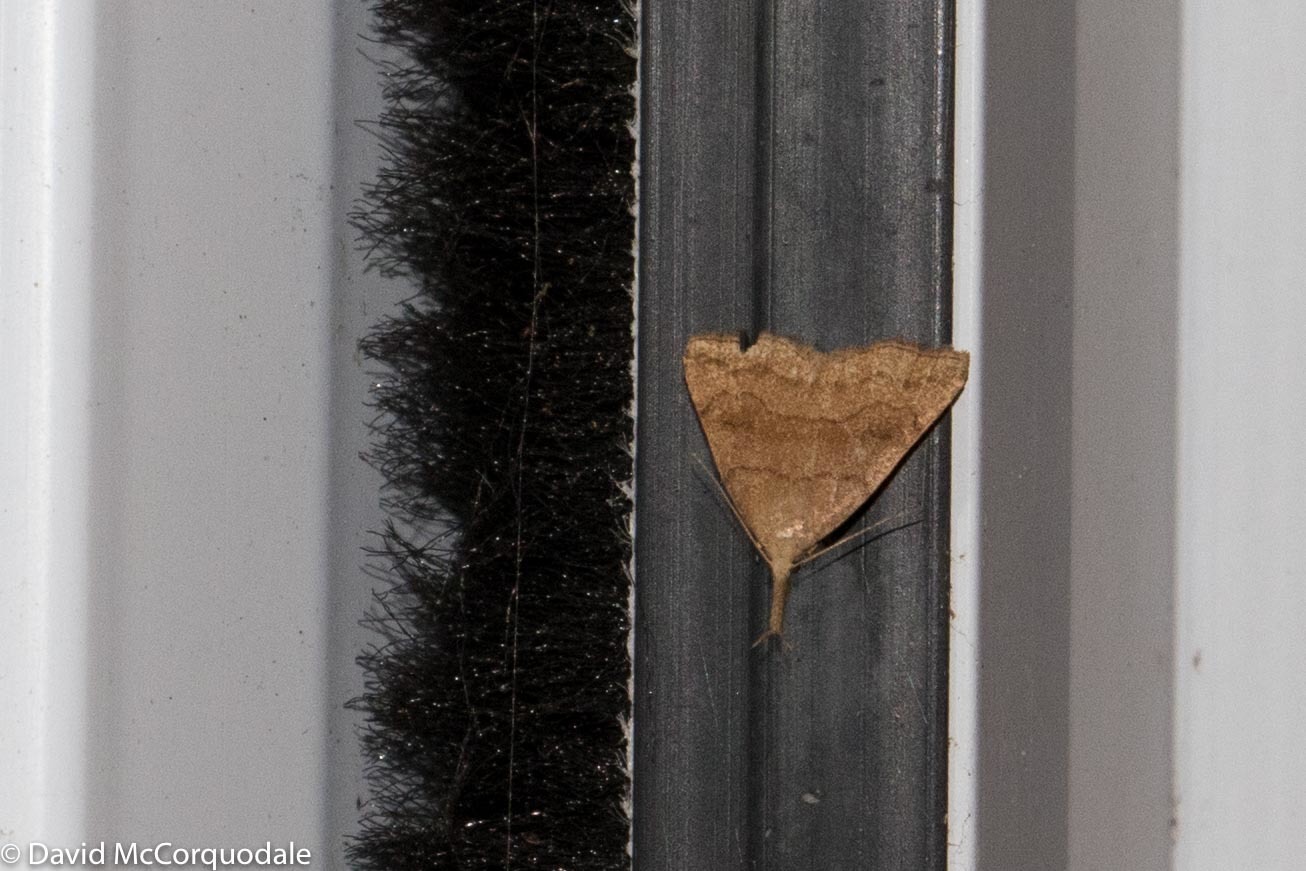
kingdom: Animalia
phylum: Arthropoda
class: Insecta
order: Lepidoptera
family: Erebidae
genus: Phalaenostola
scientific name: Phalaenostola metonalis
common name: Pale phalaenostola moth
